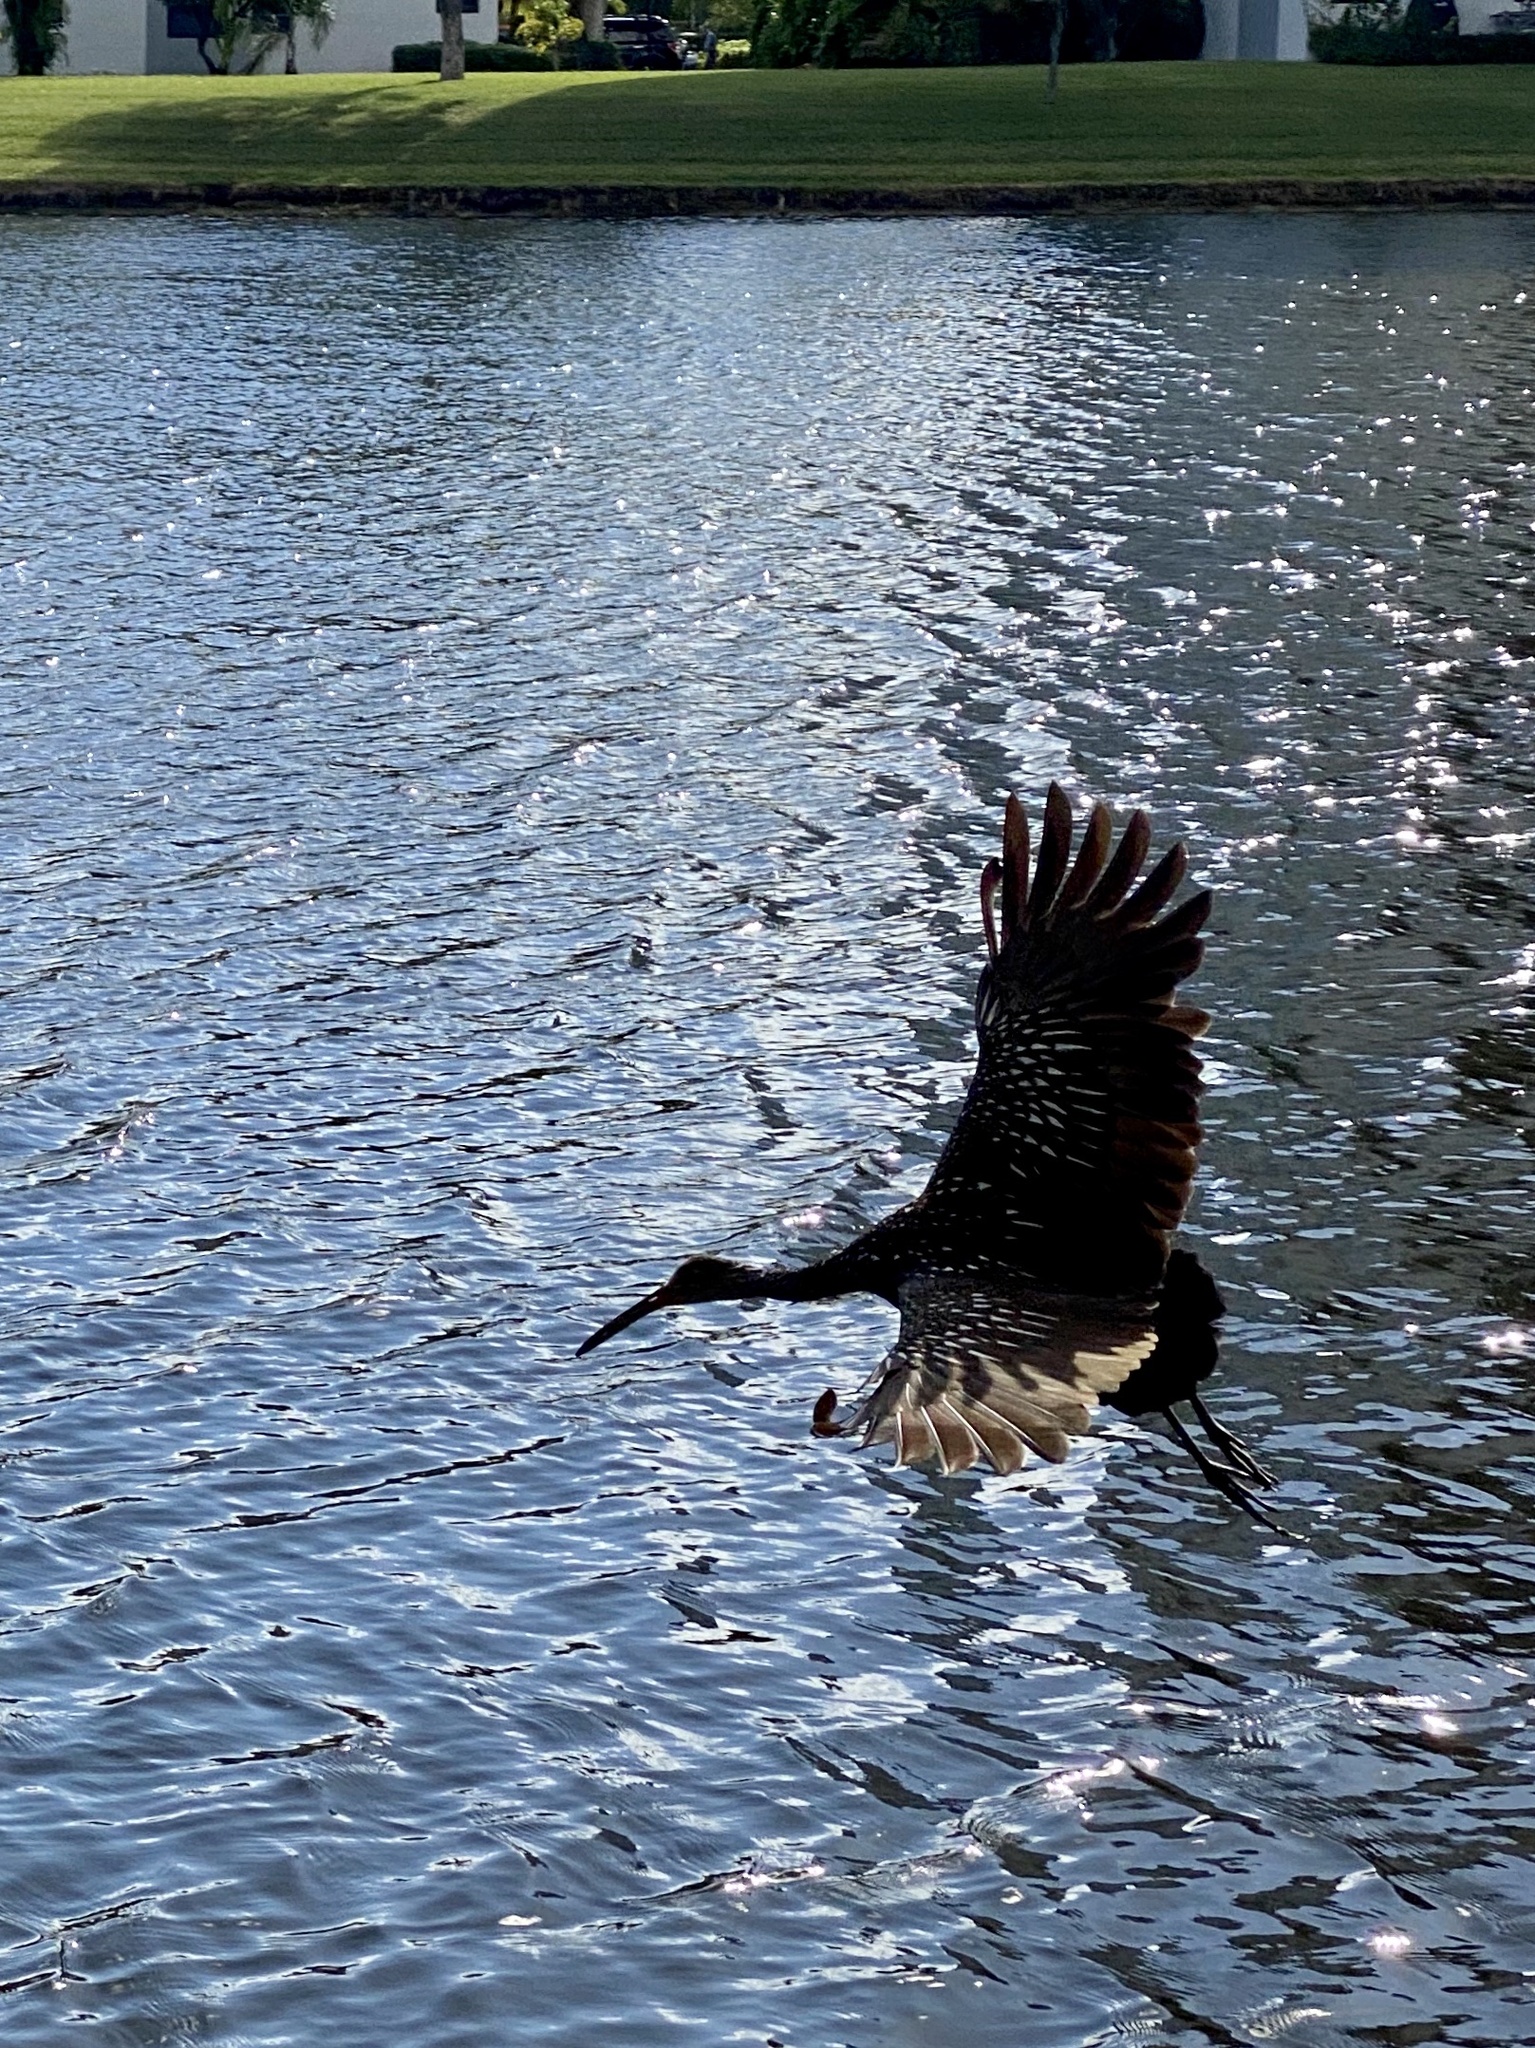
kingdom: Animalia
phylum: Chordata
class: Aves
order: Gruiformes
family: Aramidae
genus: Aramus
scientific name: Aramus guarauna
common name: Limpkin
